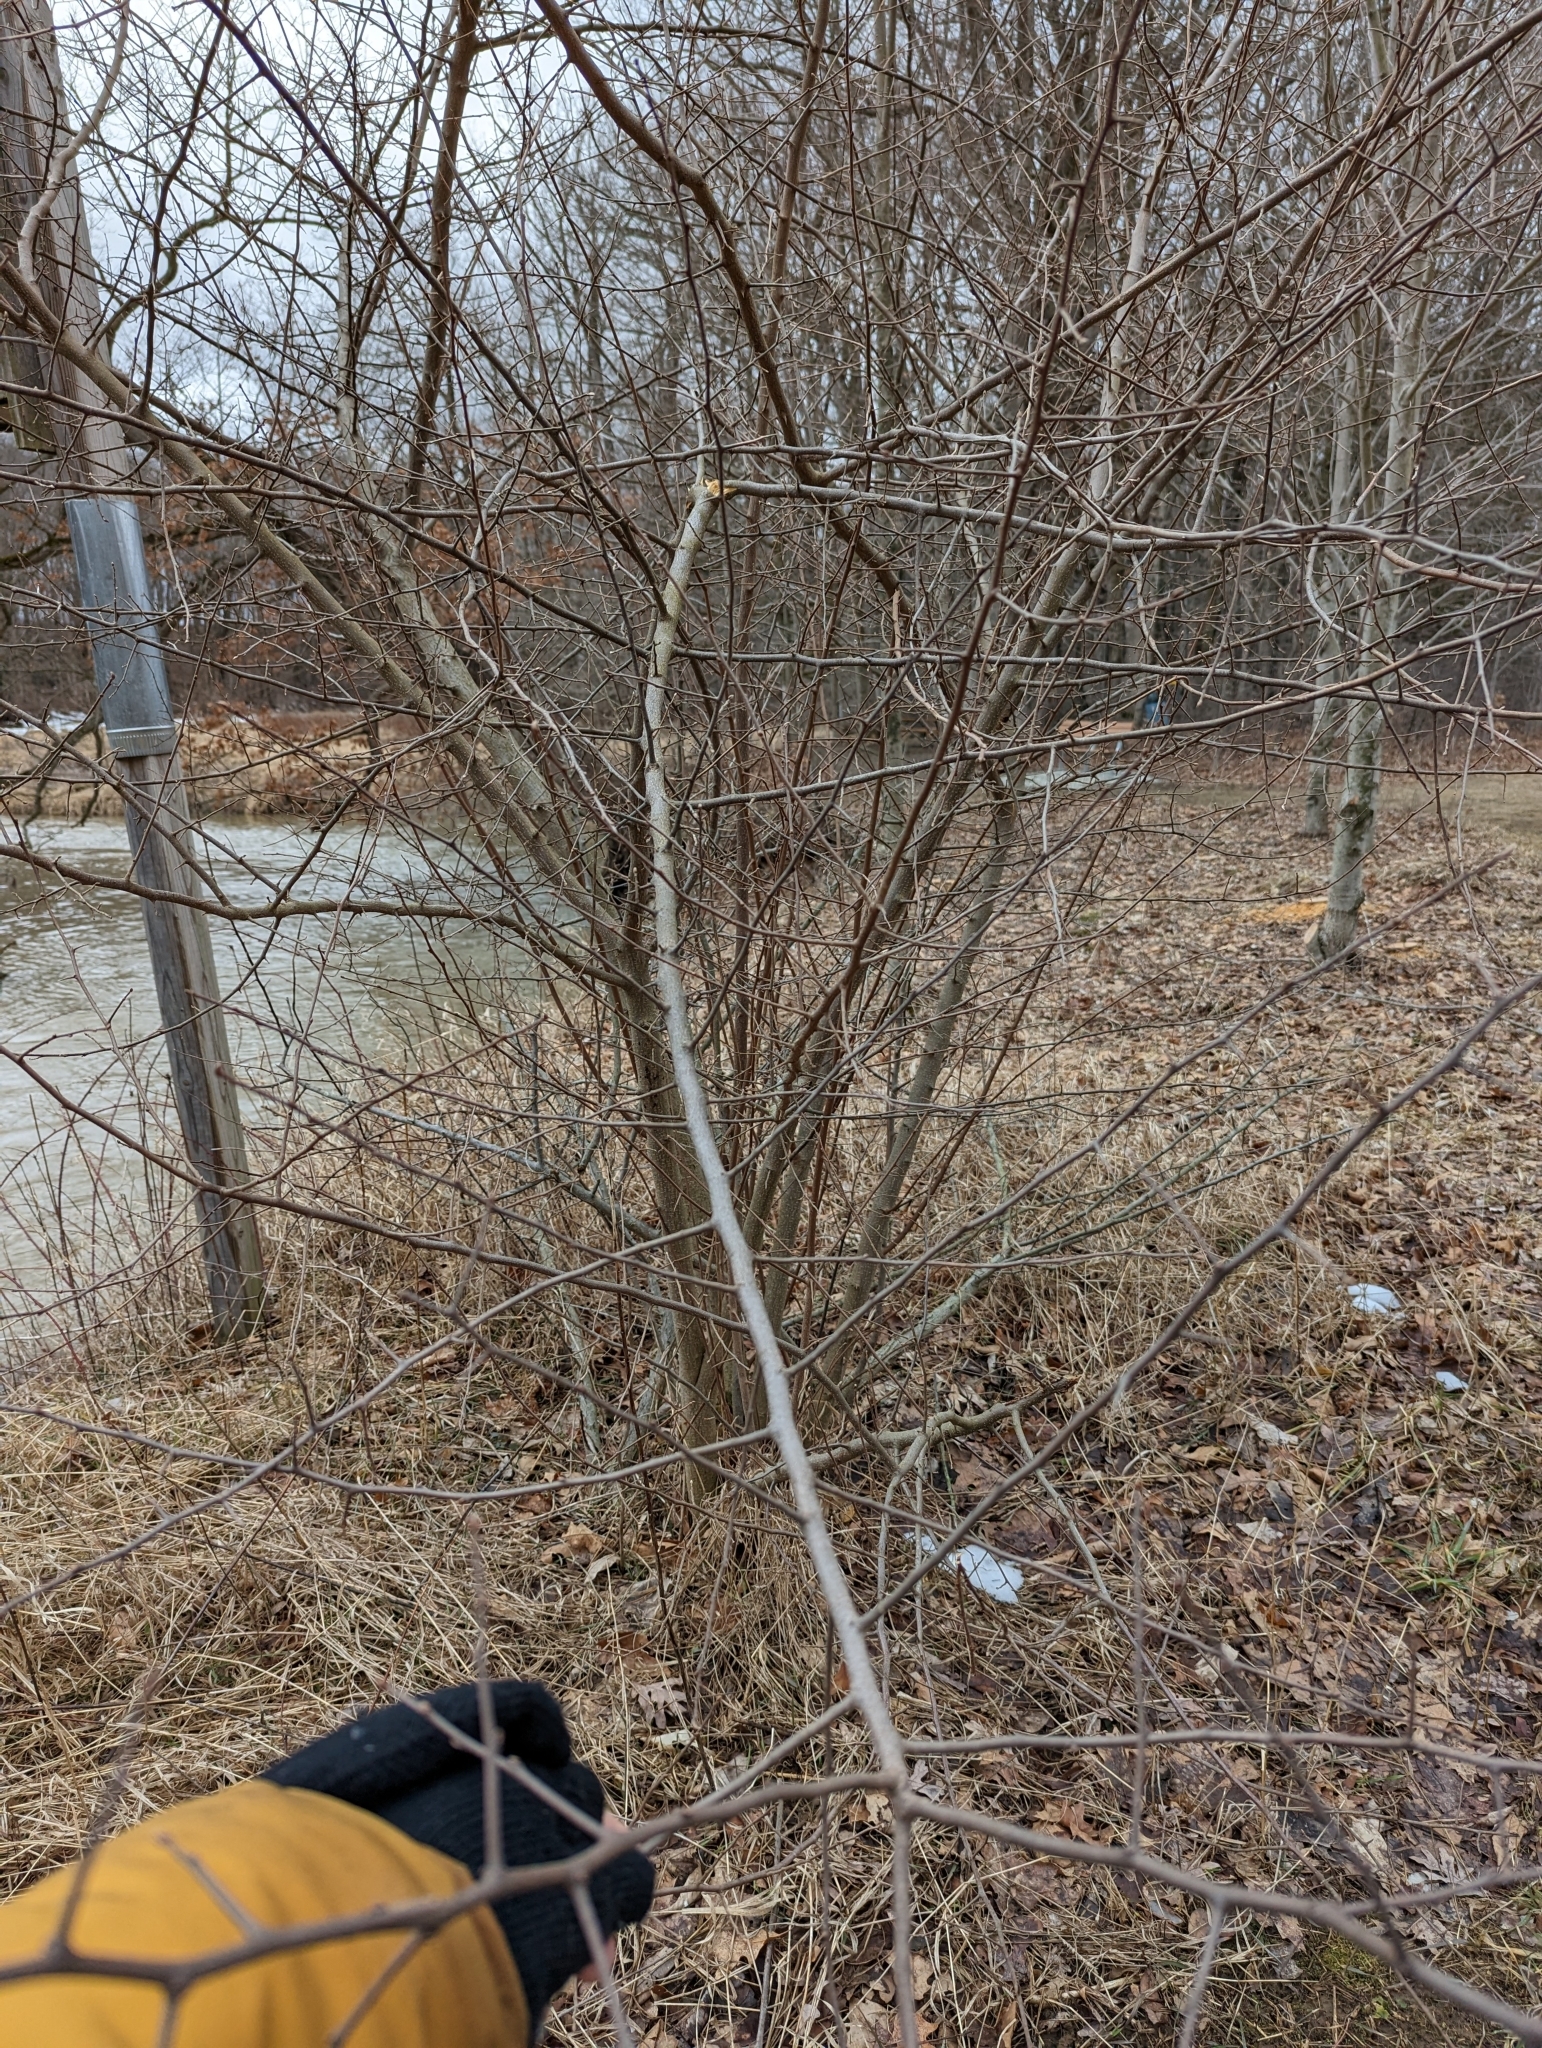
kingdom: Plantae
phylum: Tracheophyta
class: Magnoliopsida
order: Rosales
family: Elaeagnaceae
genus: Elaeagnus
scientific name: Elaeagnus umbellata
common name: Autumn olive
